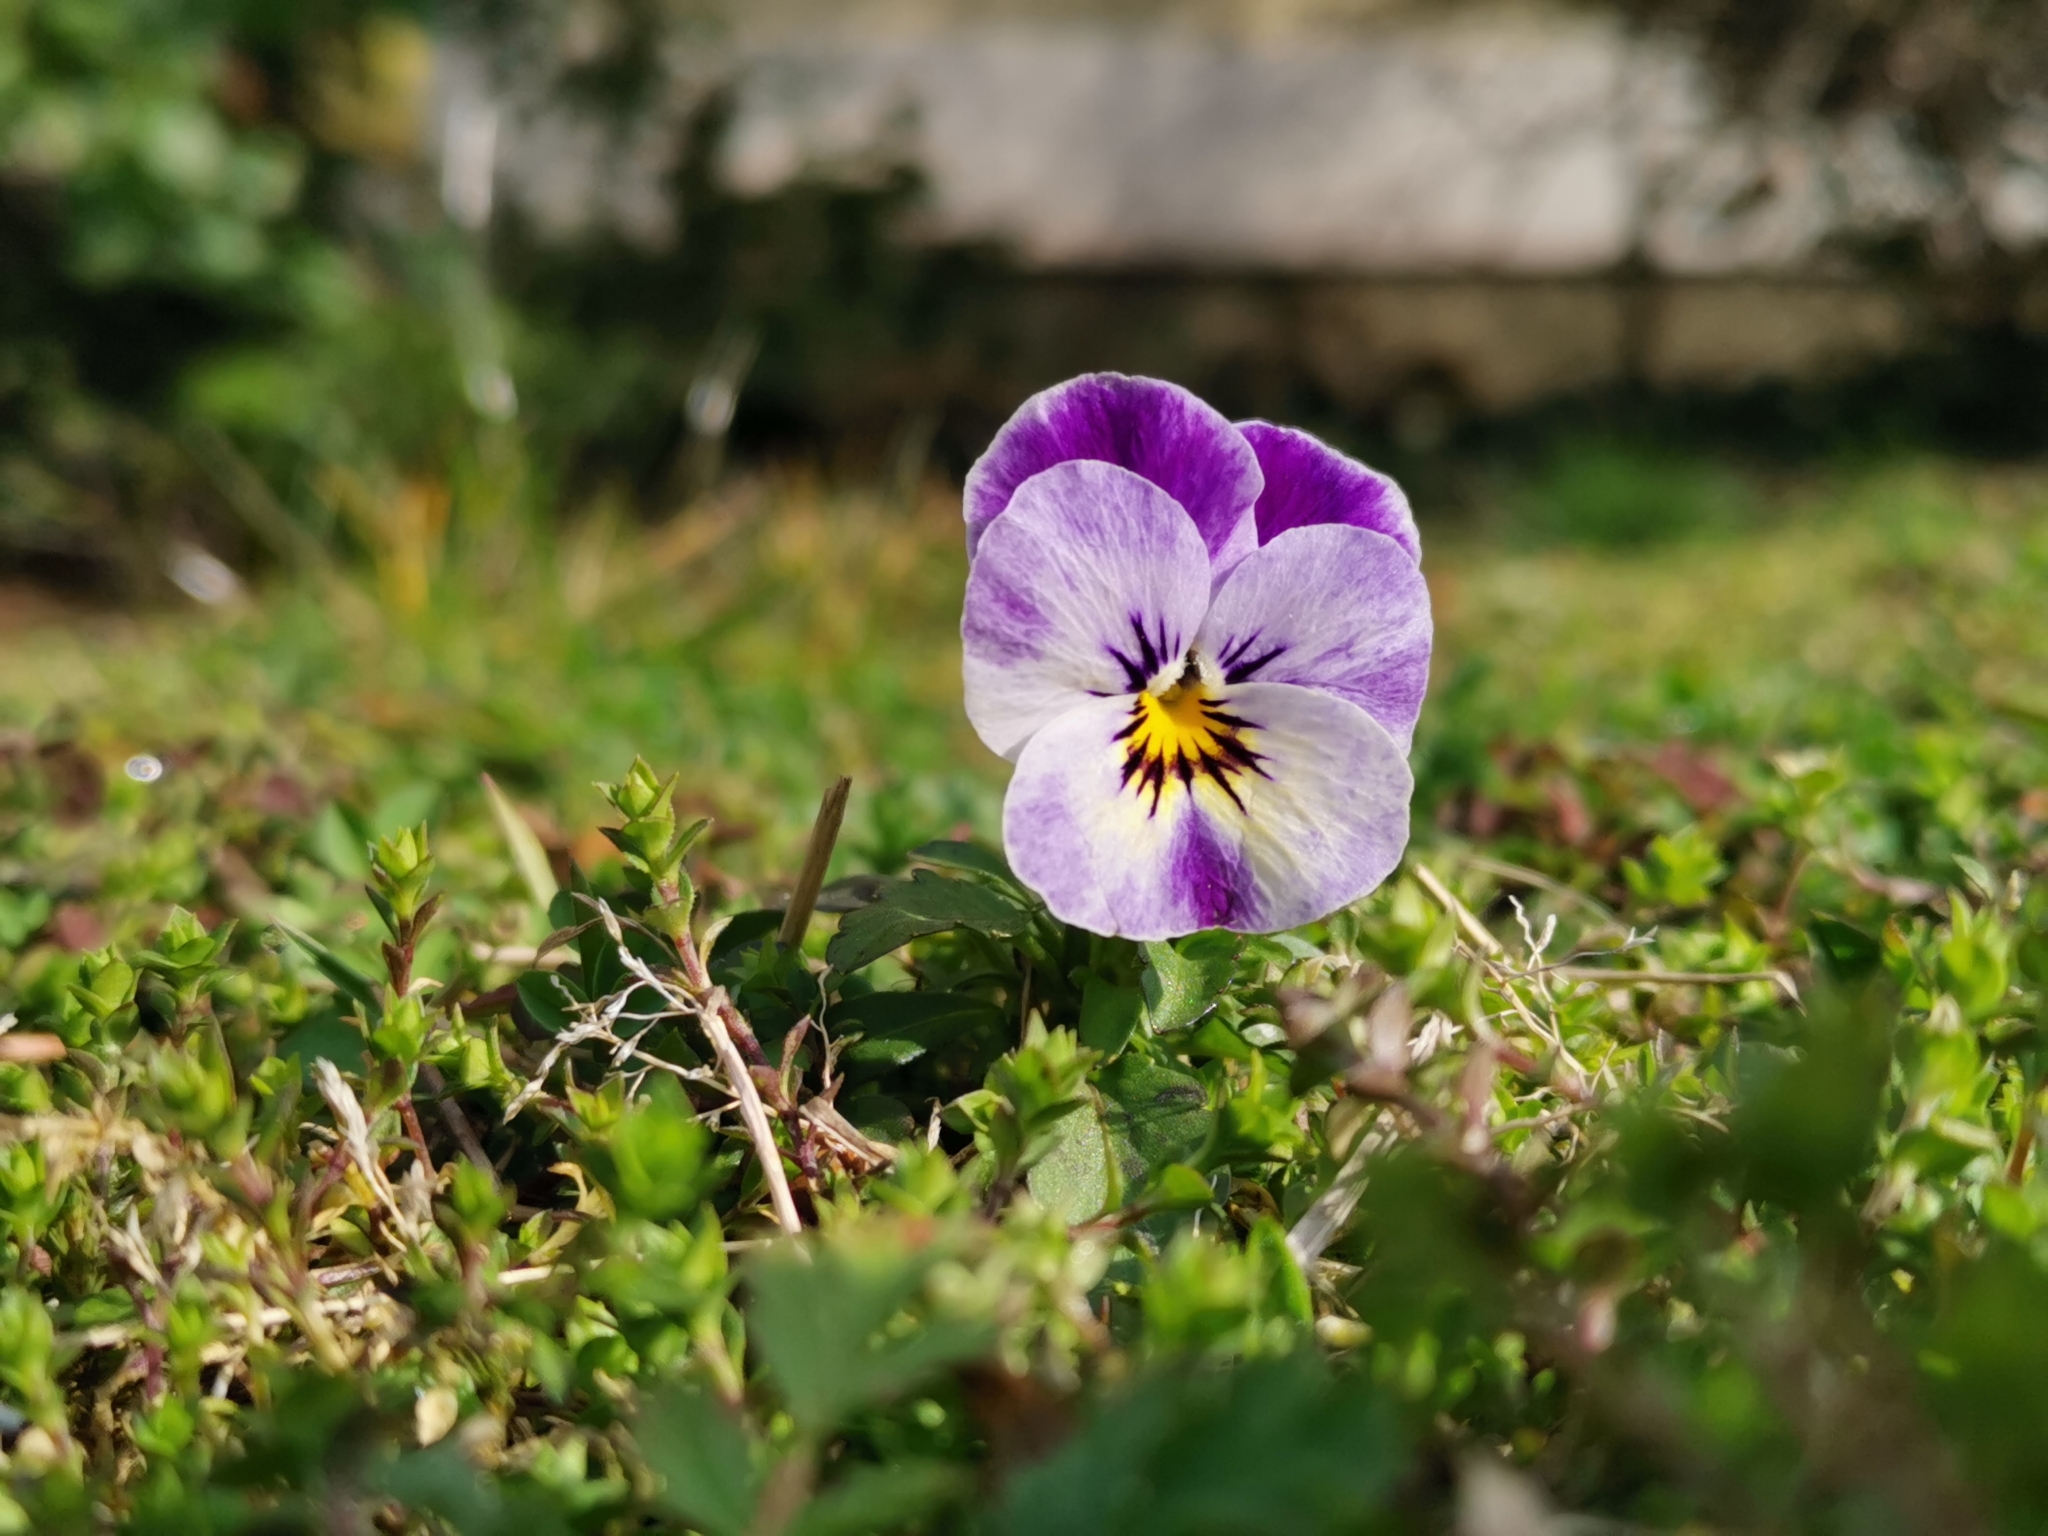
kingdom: Plantae
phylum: Tracheophyta
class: Magnoliopsida
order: Malpighiales
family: Violaceae
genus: Viola
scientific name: Viola wittrockiana
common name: Garden pansy
